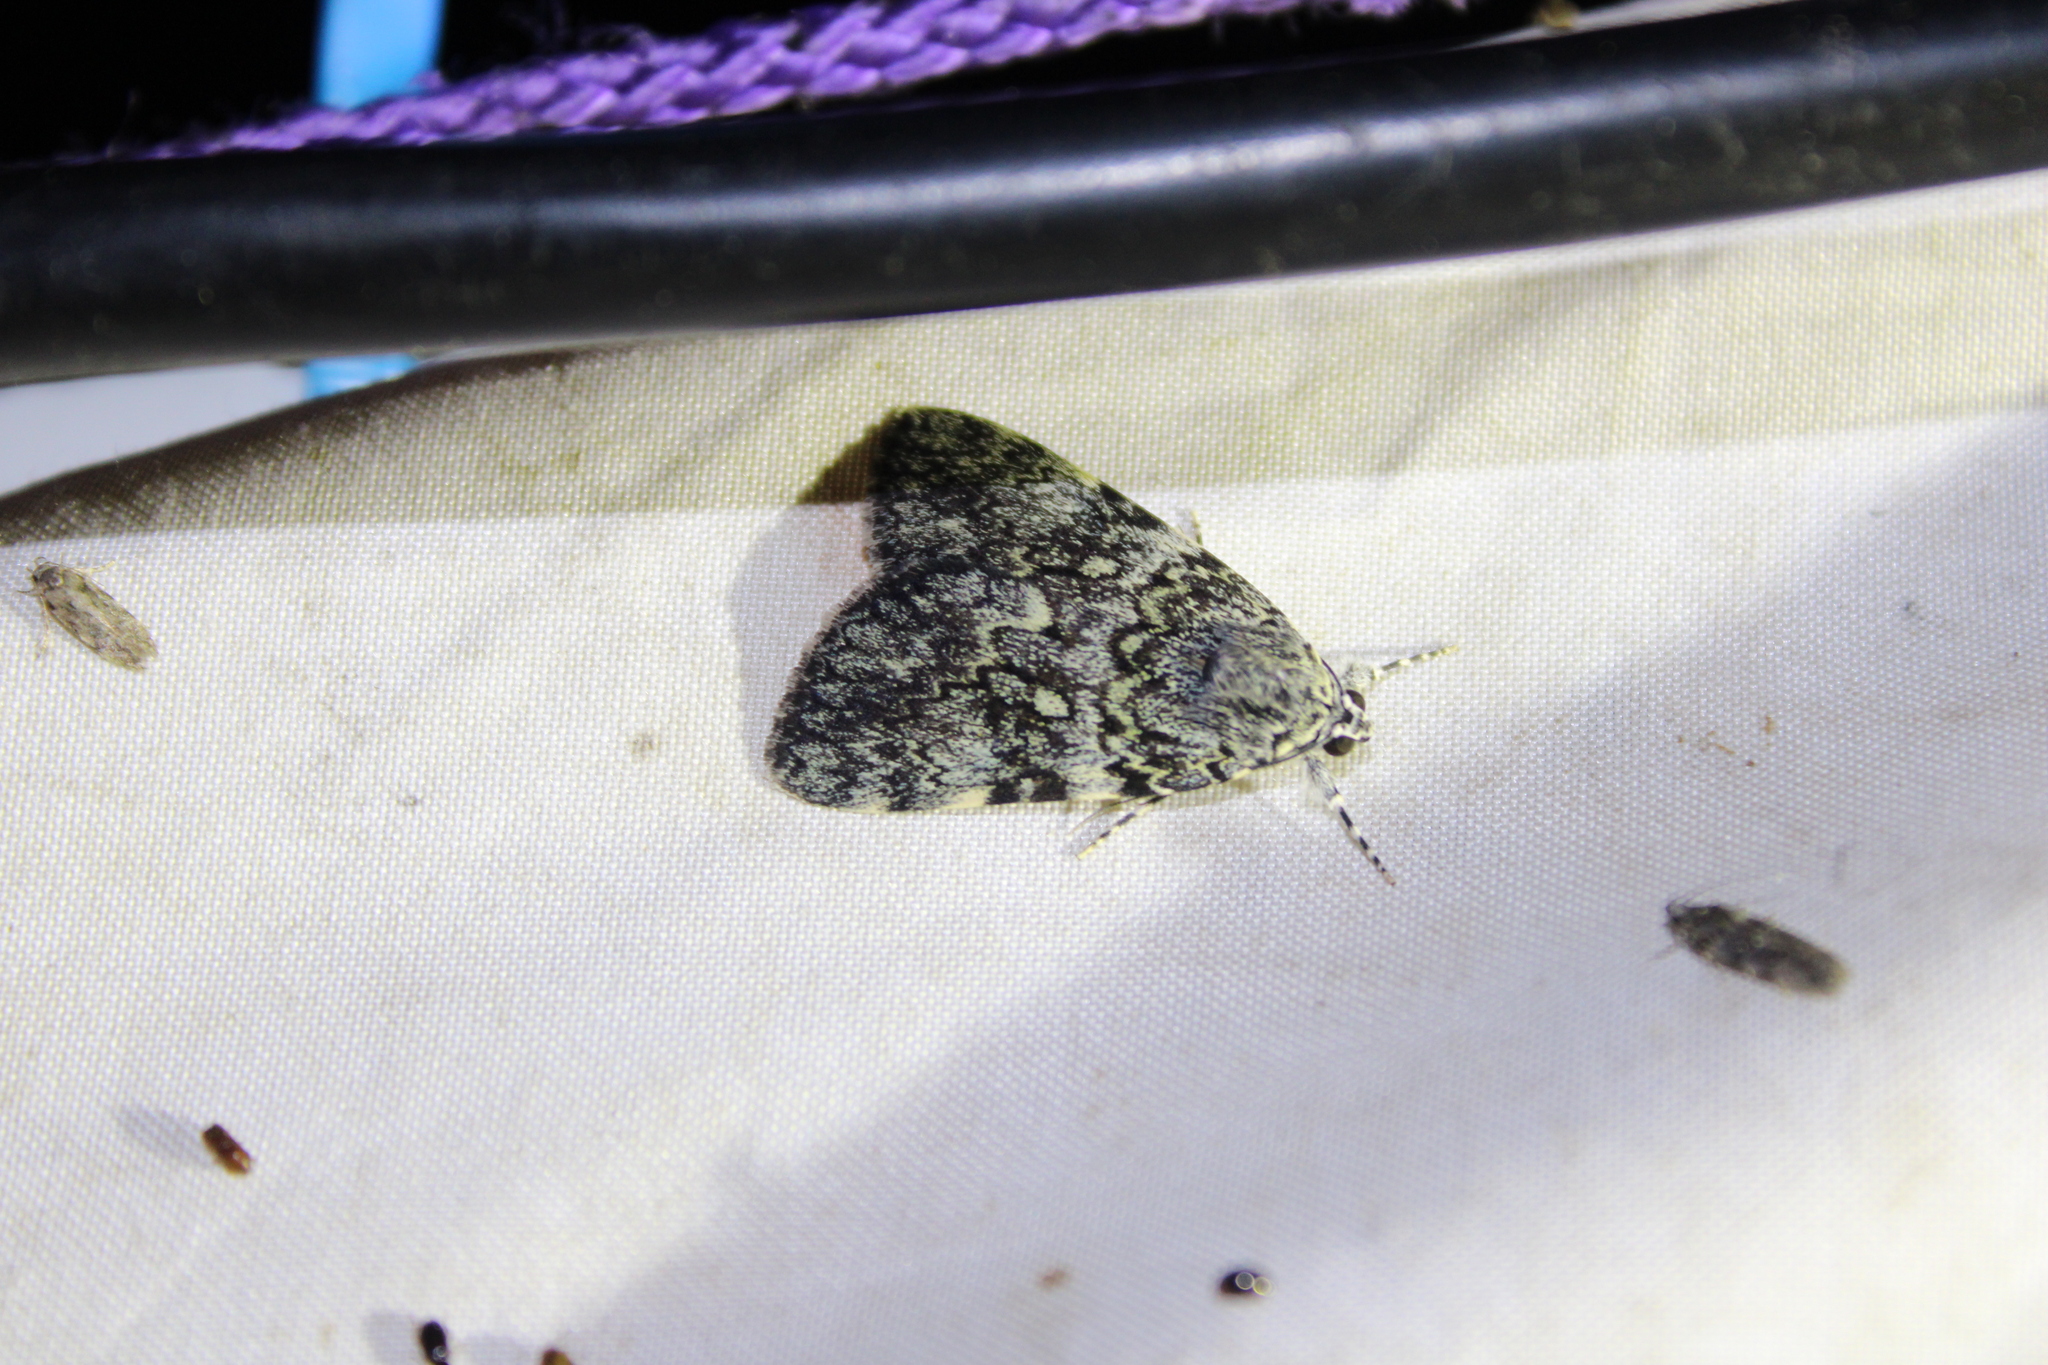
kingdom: Animalia
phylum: Arthropoda
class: Insecta
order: Lepidoptera
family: Erebidae
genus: Catocala
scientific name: Catocala lineella
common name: Little lined underwing
